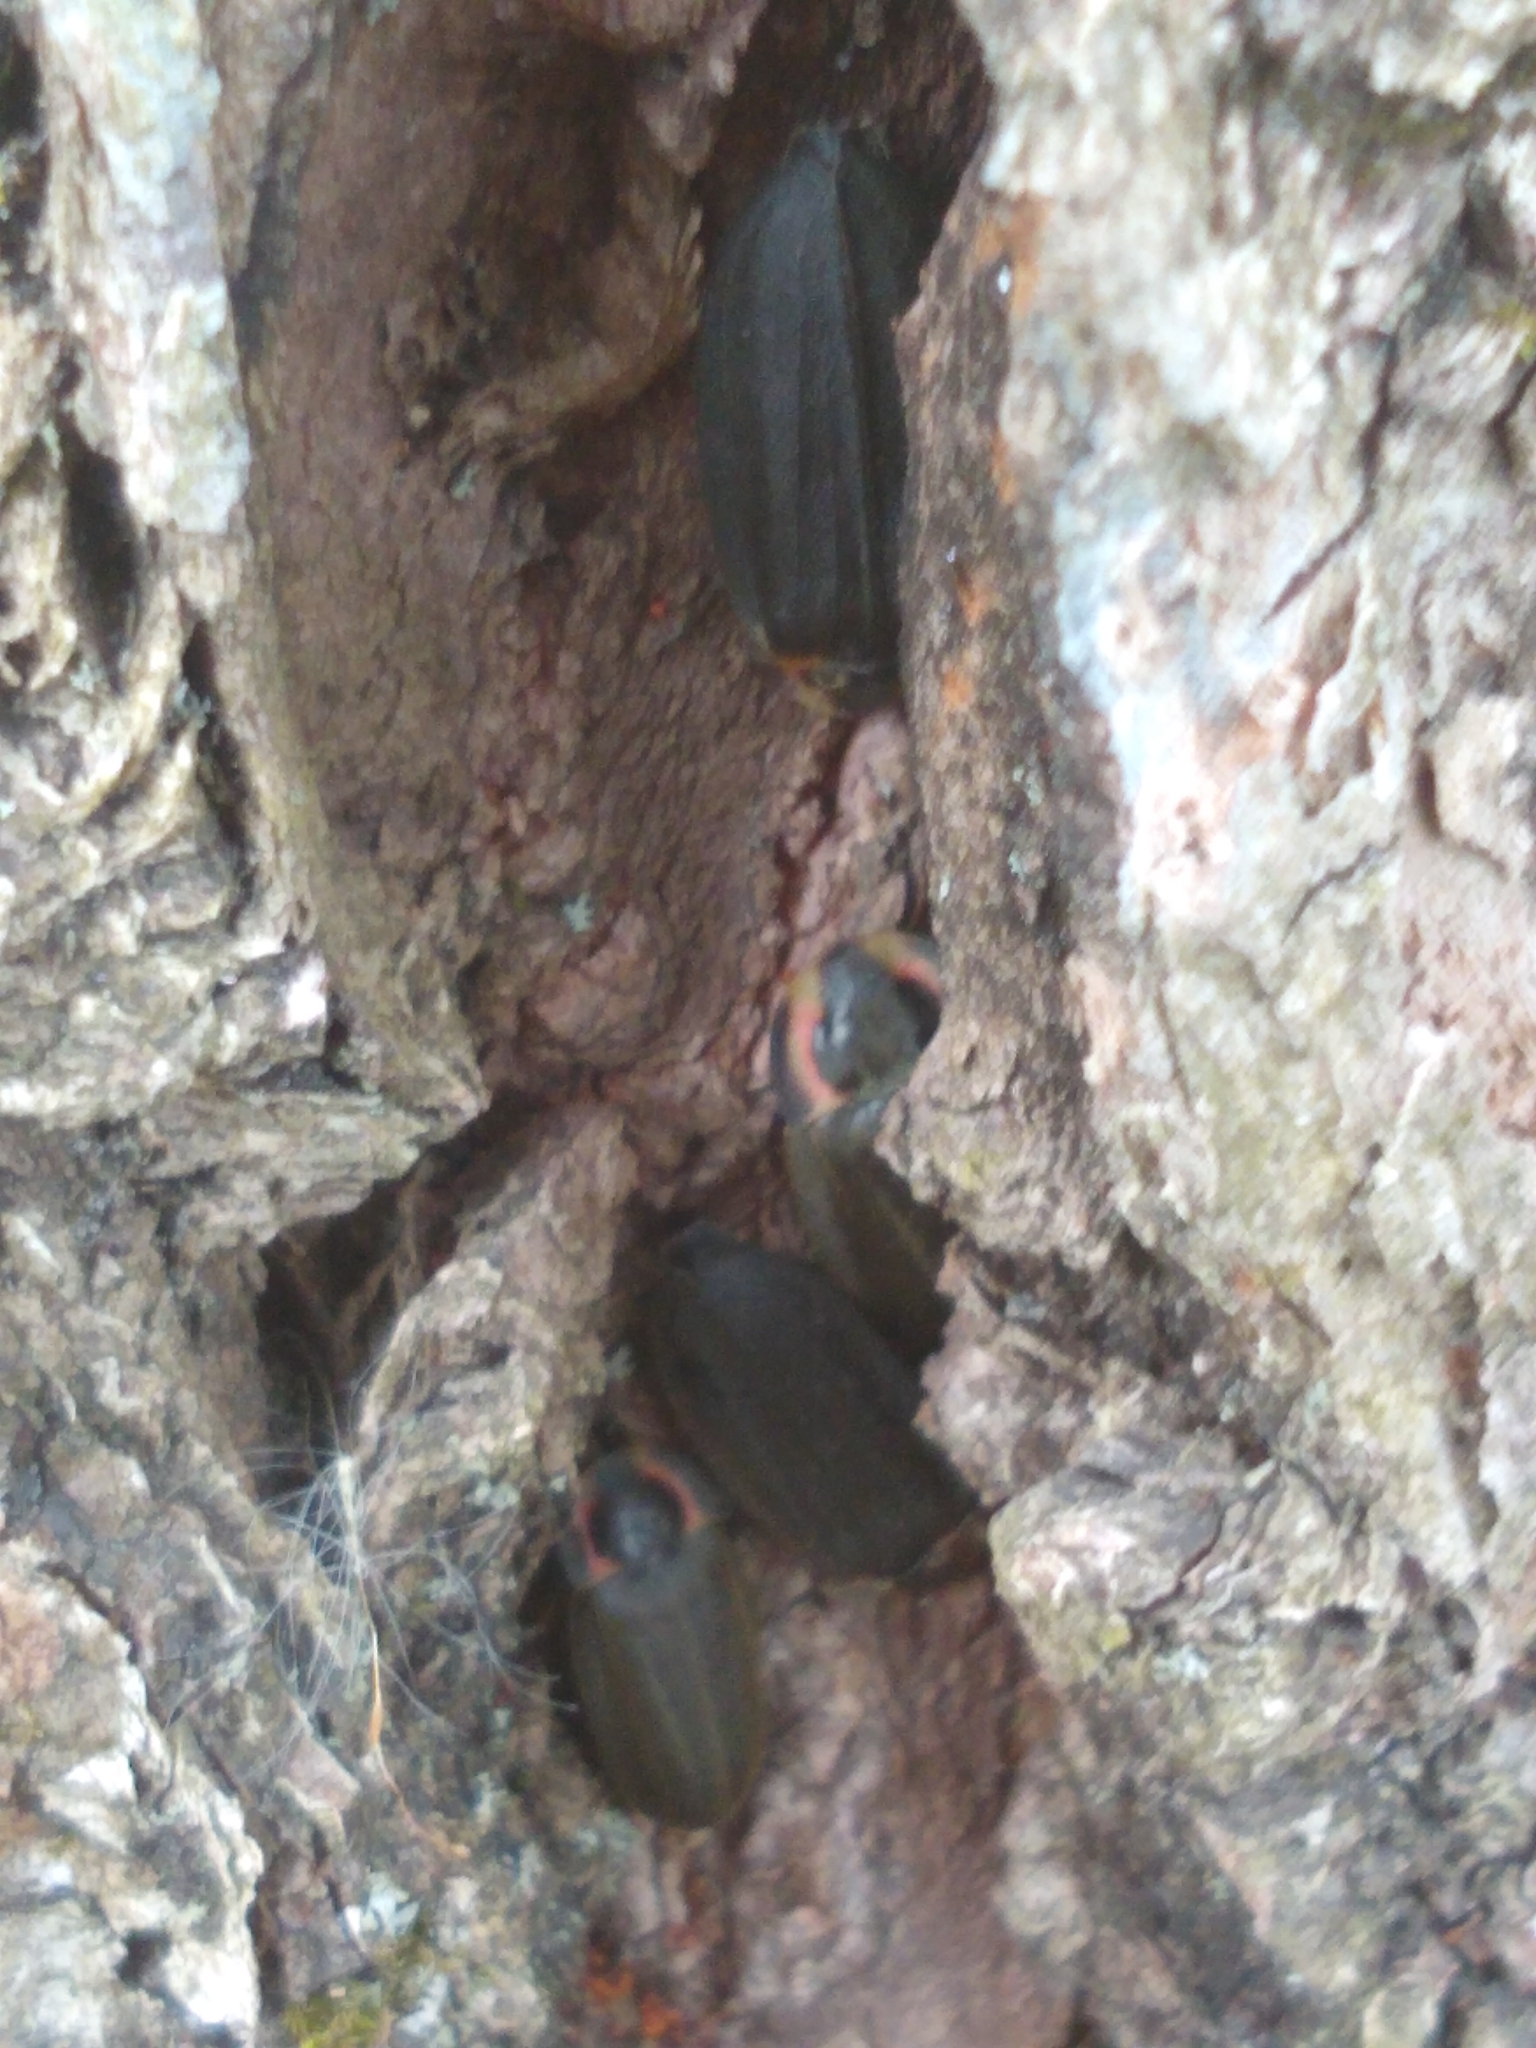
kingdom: Animalia
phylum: Arthropoda
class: Insecta
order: Coleoptera
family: Lampyridae
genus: Photinus
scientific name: Photinus corrusca
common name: Winter firefly
